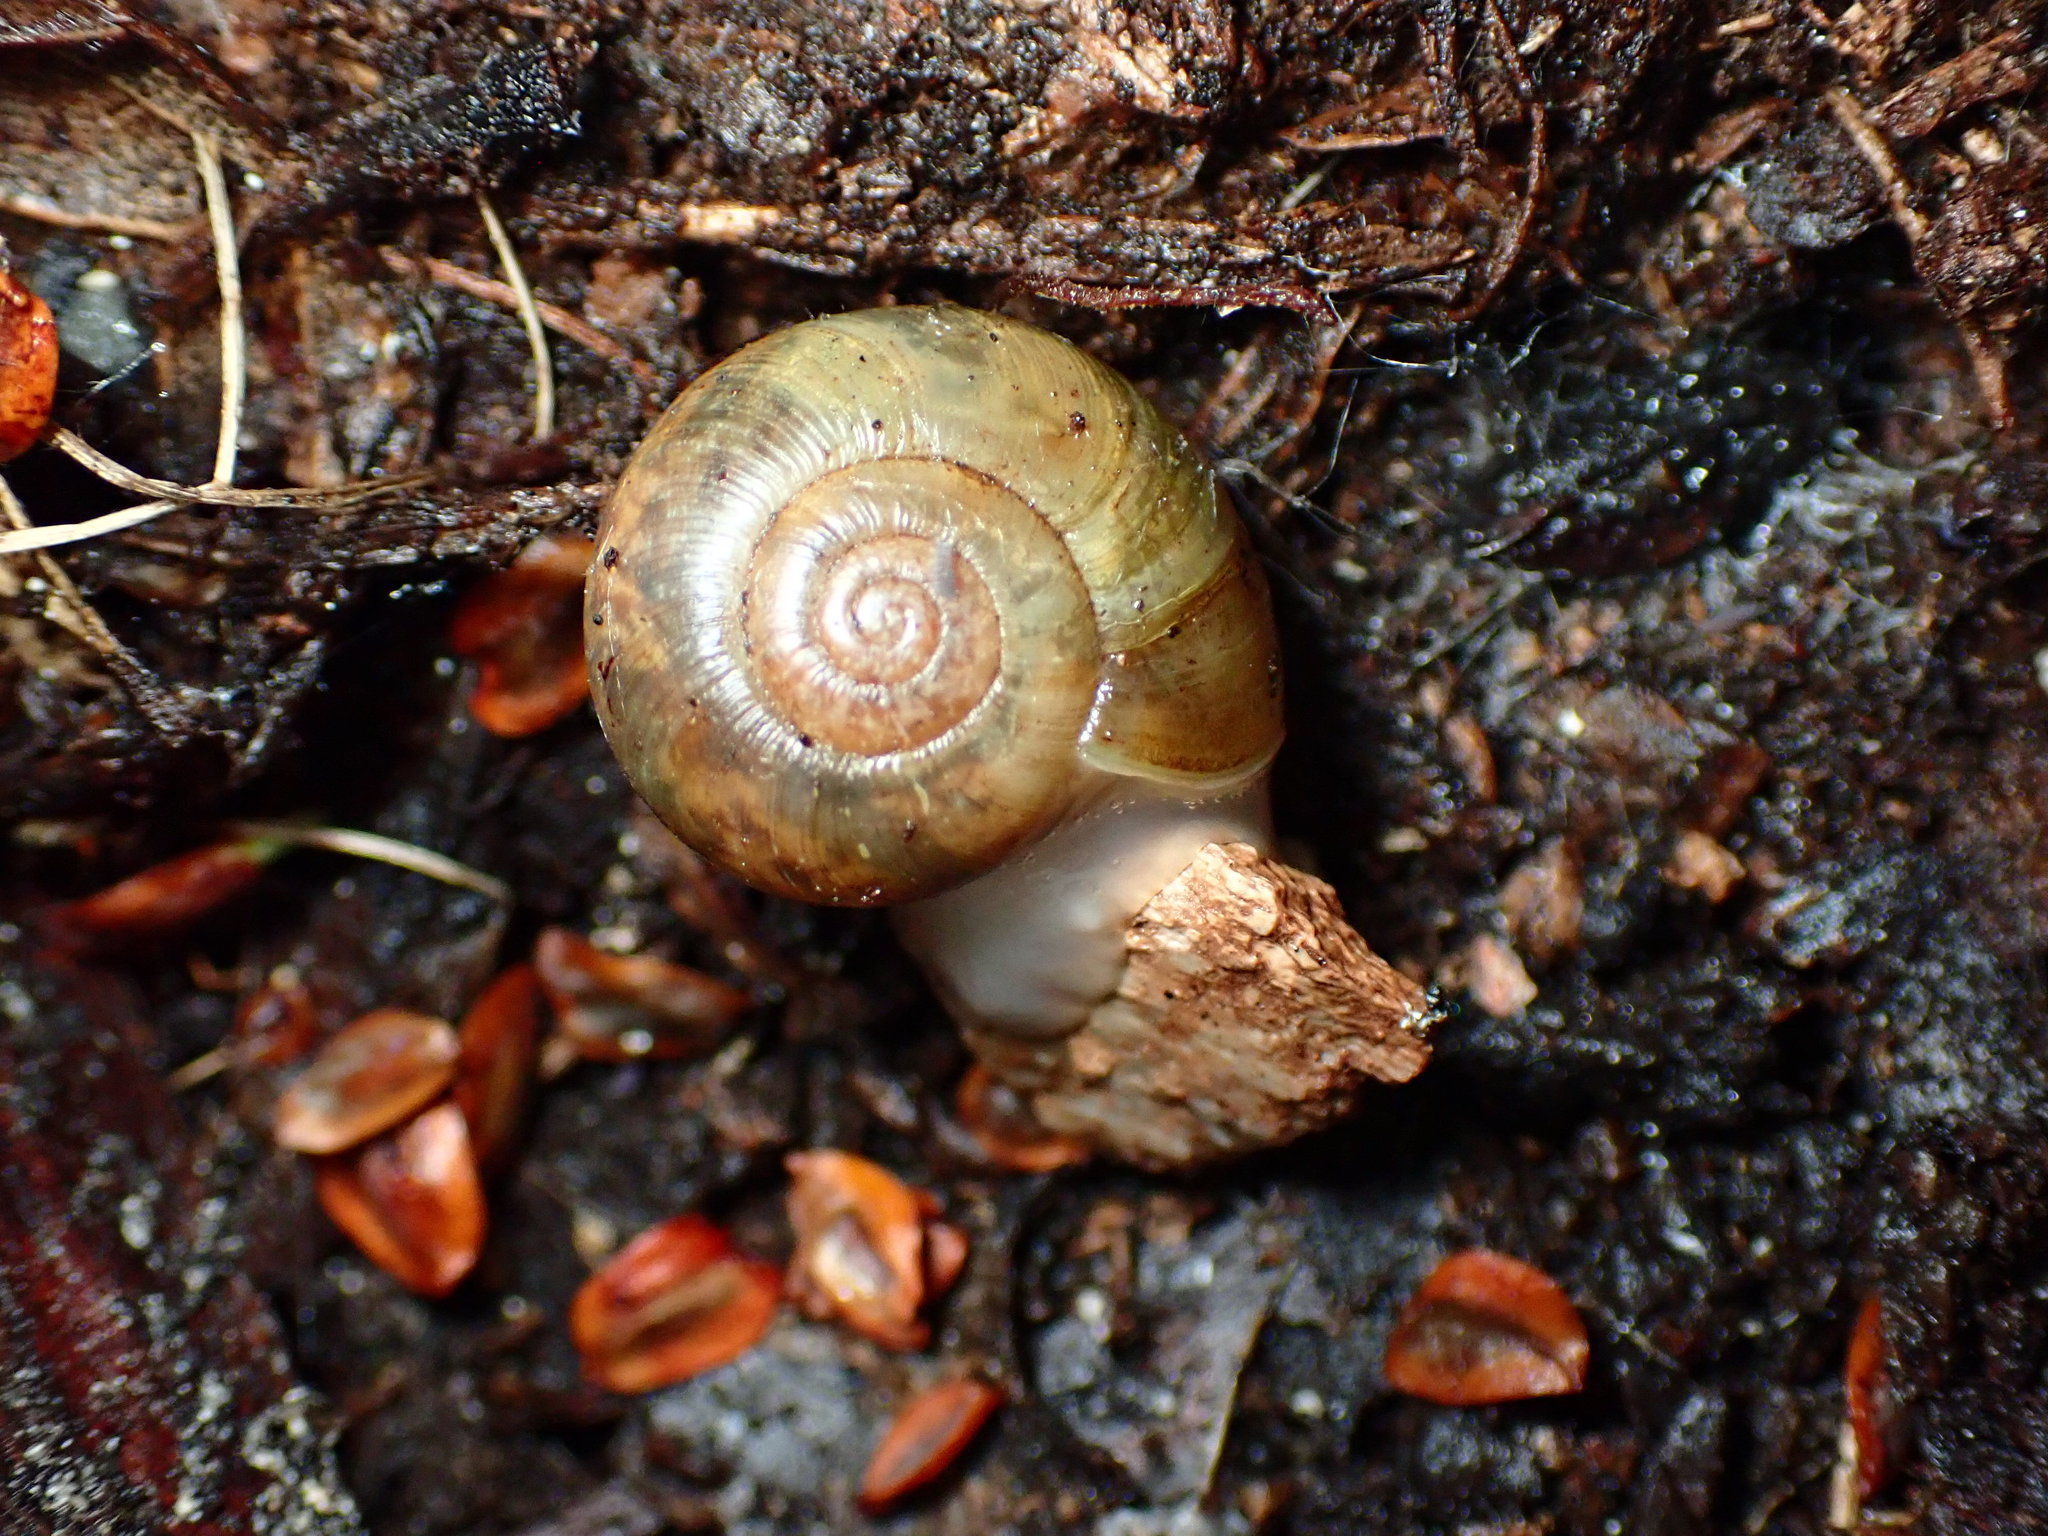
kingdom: Animalia
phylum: Mollusca
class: Gastropoda
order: Stylommatophora
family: Haplotrematidae
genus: Haplotrema
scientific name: Haplotrema minimum
